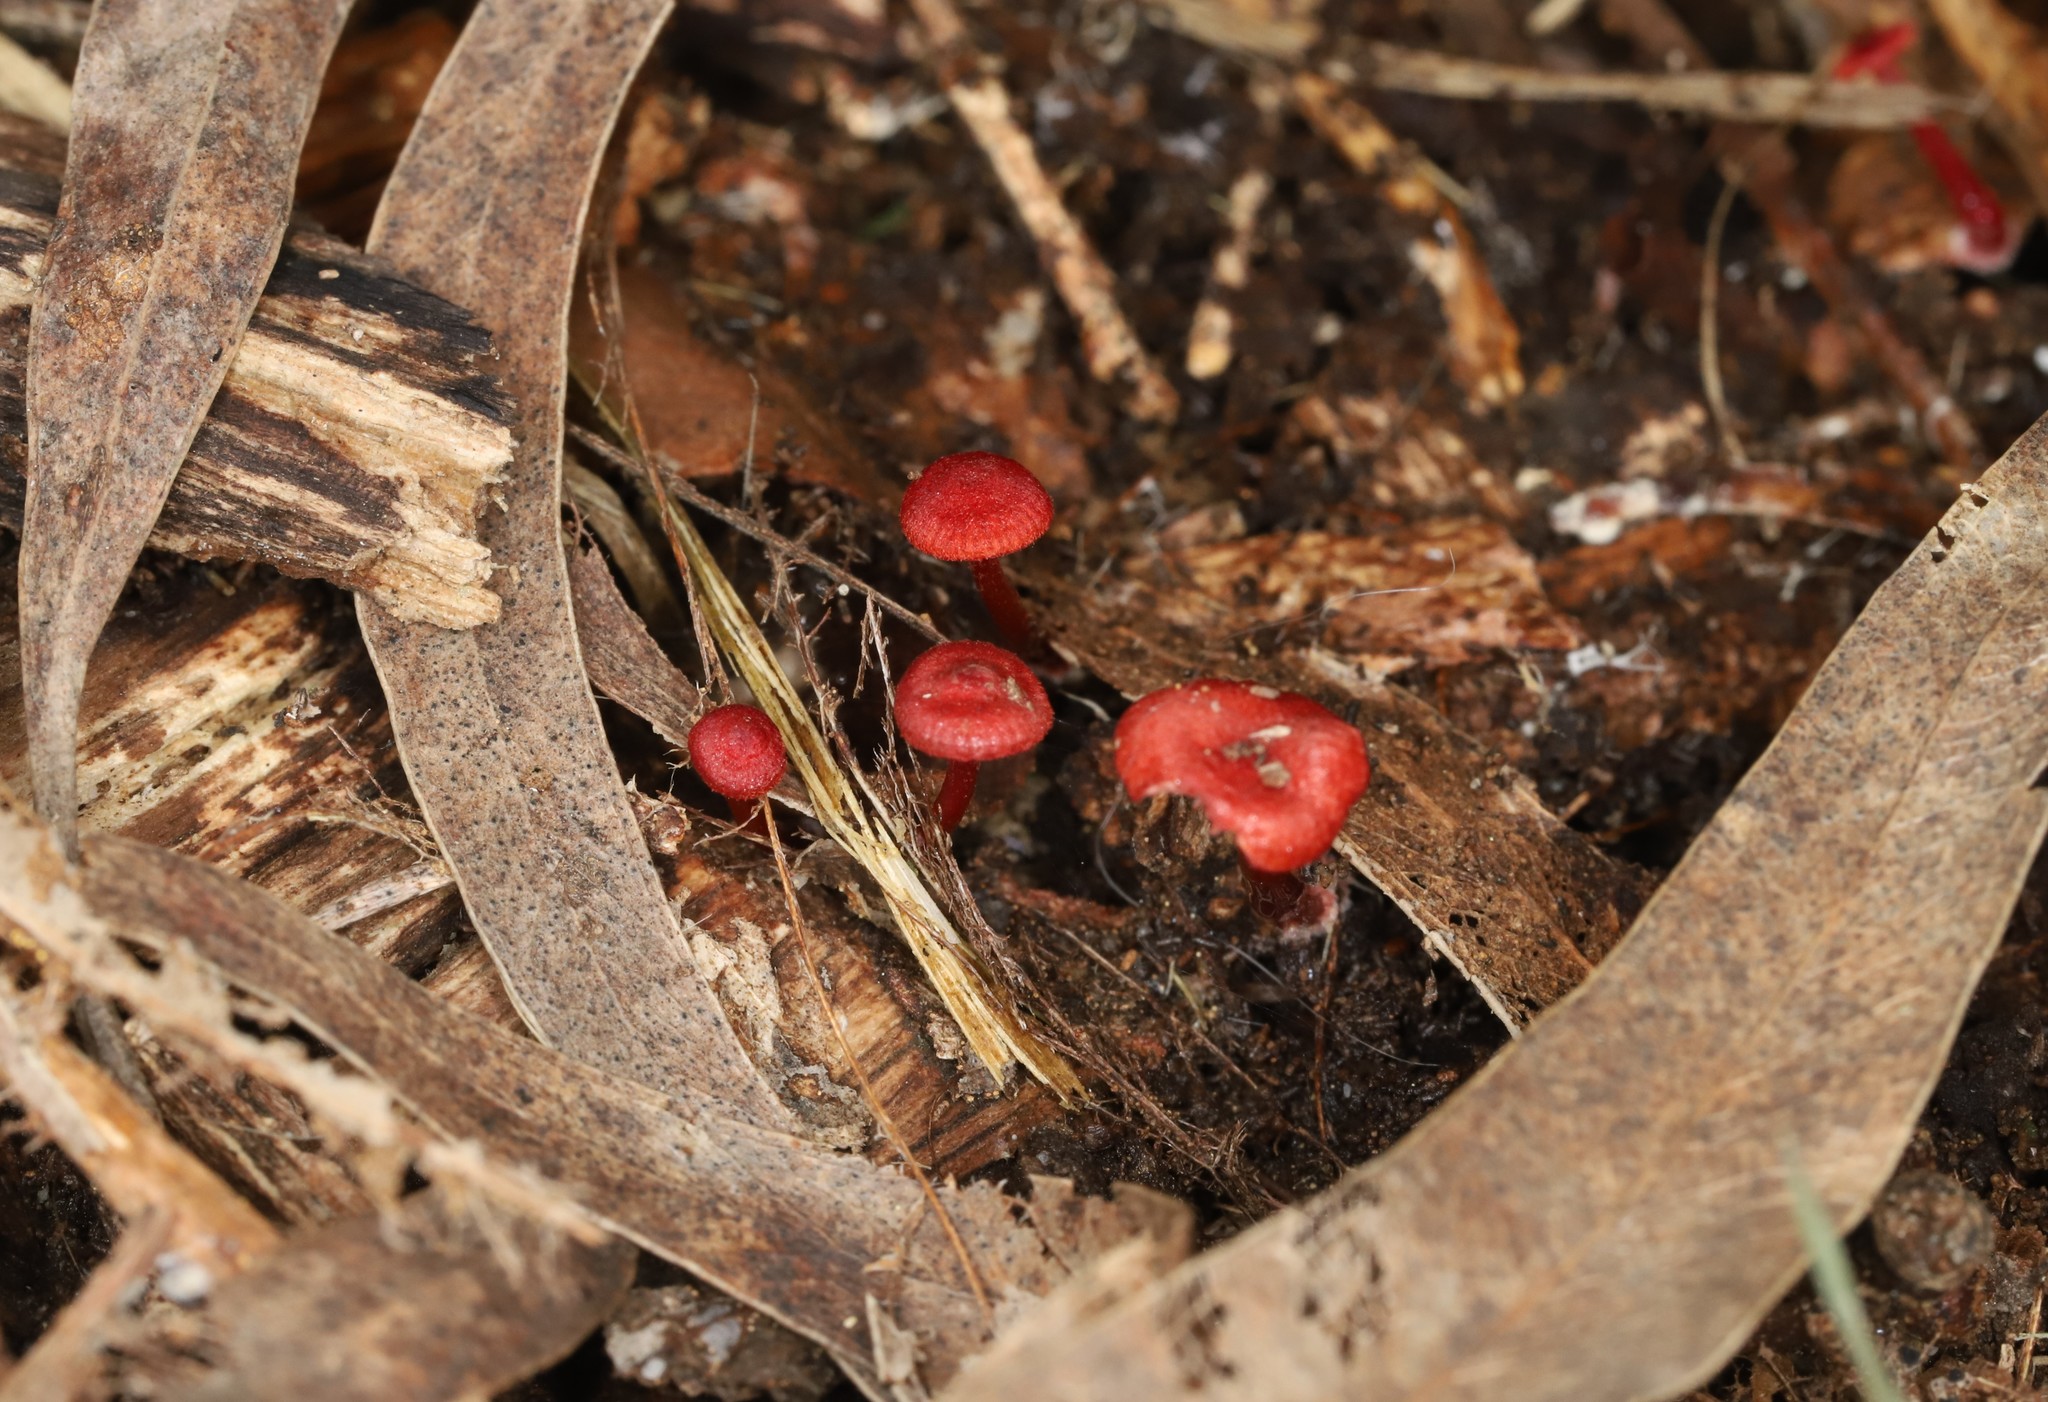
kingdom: Fungi
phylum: Basidiomycota
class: Agaricomycetes
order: Agaricales
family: Mycenaceae
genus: Cruentomycena
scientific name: Cruentomycena viscidocruenta
